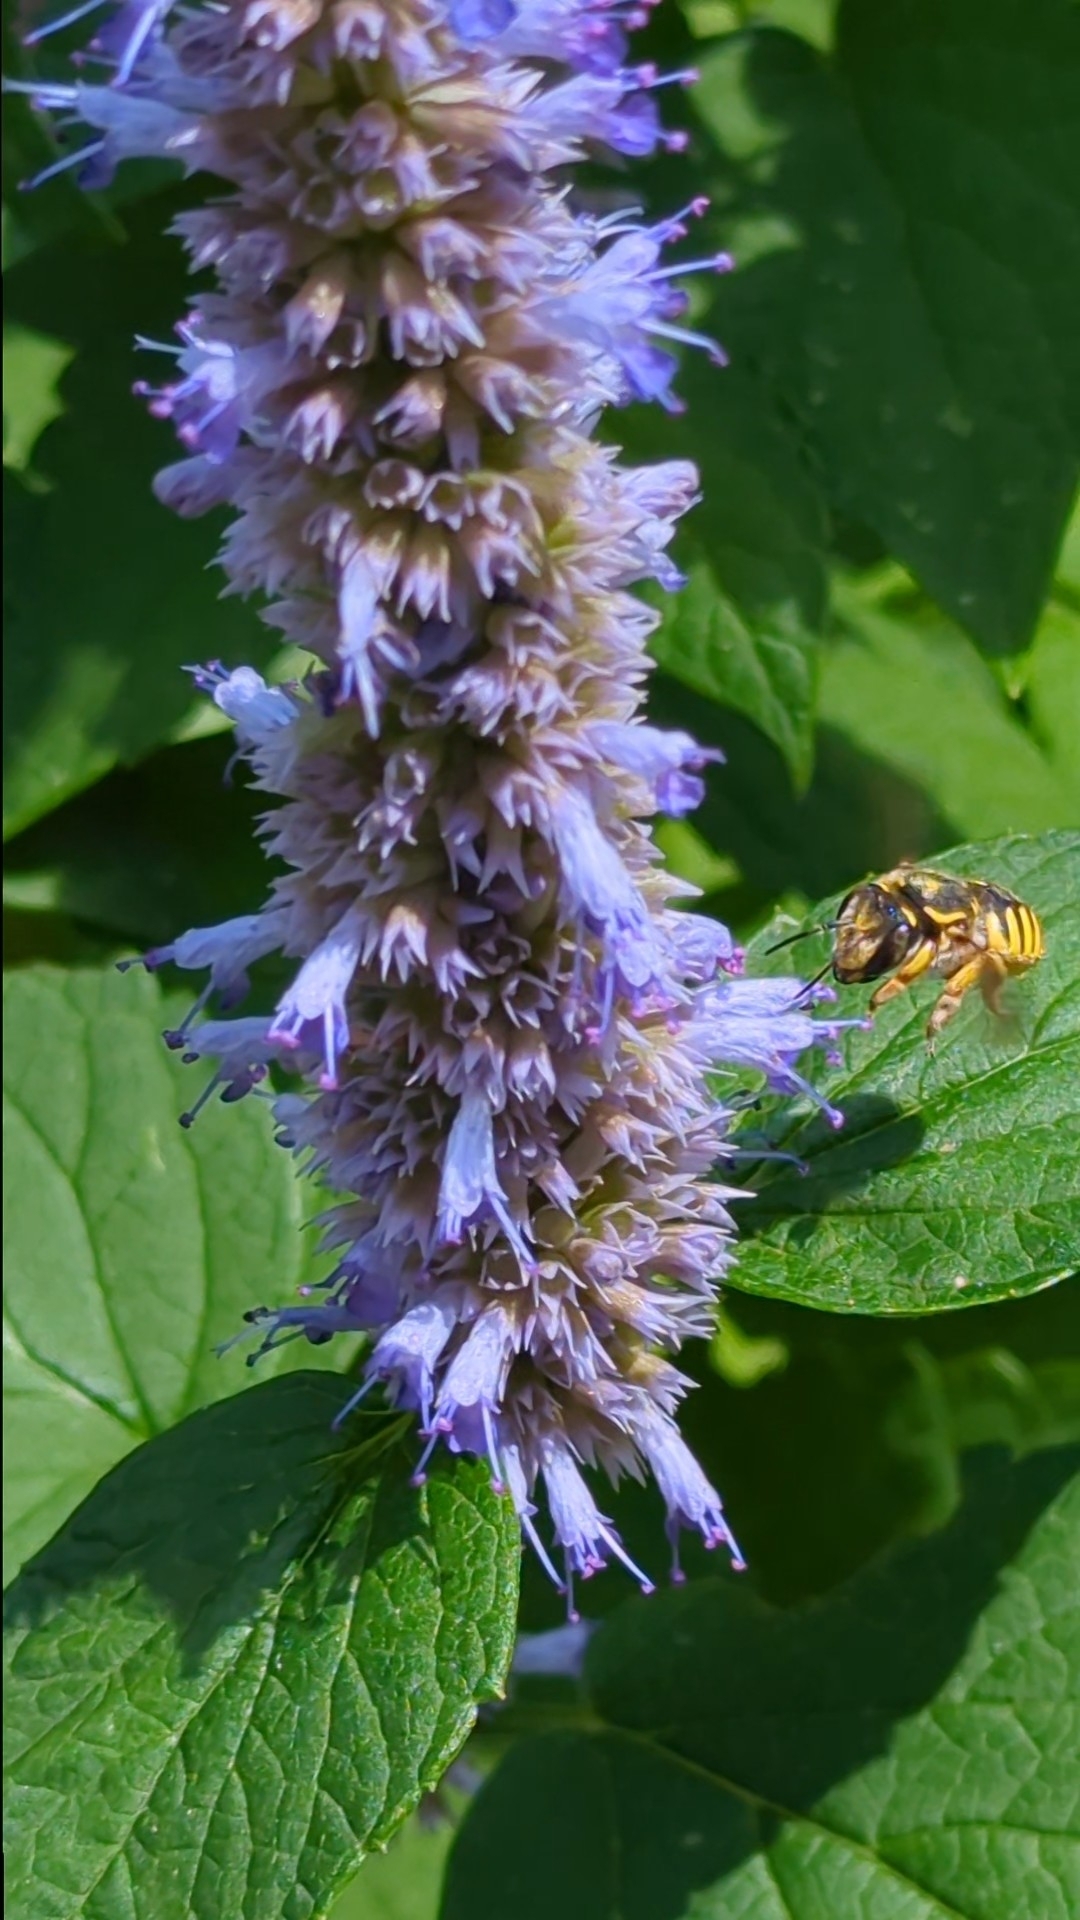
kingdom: Animalia
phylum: Arthropoda
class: Insecta
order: Hymenoptera
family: Megachilidae
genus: Anthidium
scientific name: Anthidium manicatum
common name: Wool carder bee
